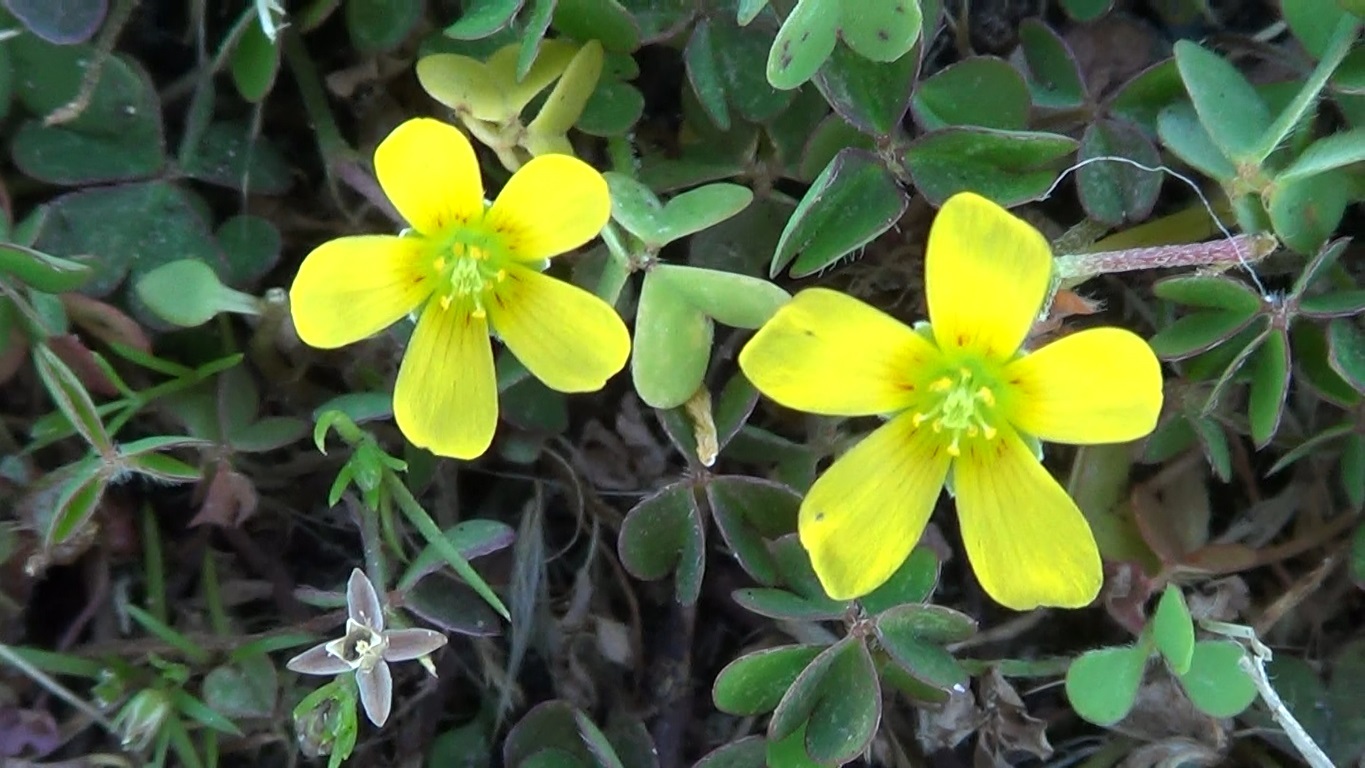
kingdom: Plantae
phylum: Tracheophyta
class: Magnoliopsida
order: Oxalidales
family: Oxalidaceae
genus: Oxalis
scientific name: Oxalis corniculata
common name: Procumbent yellow-sorrel
